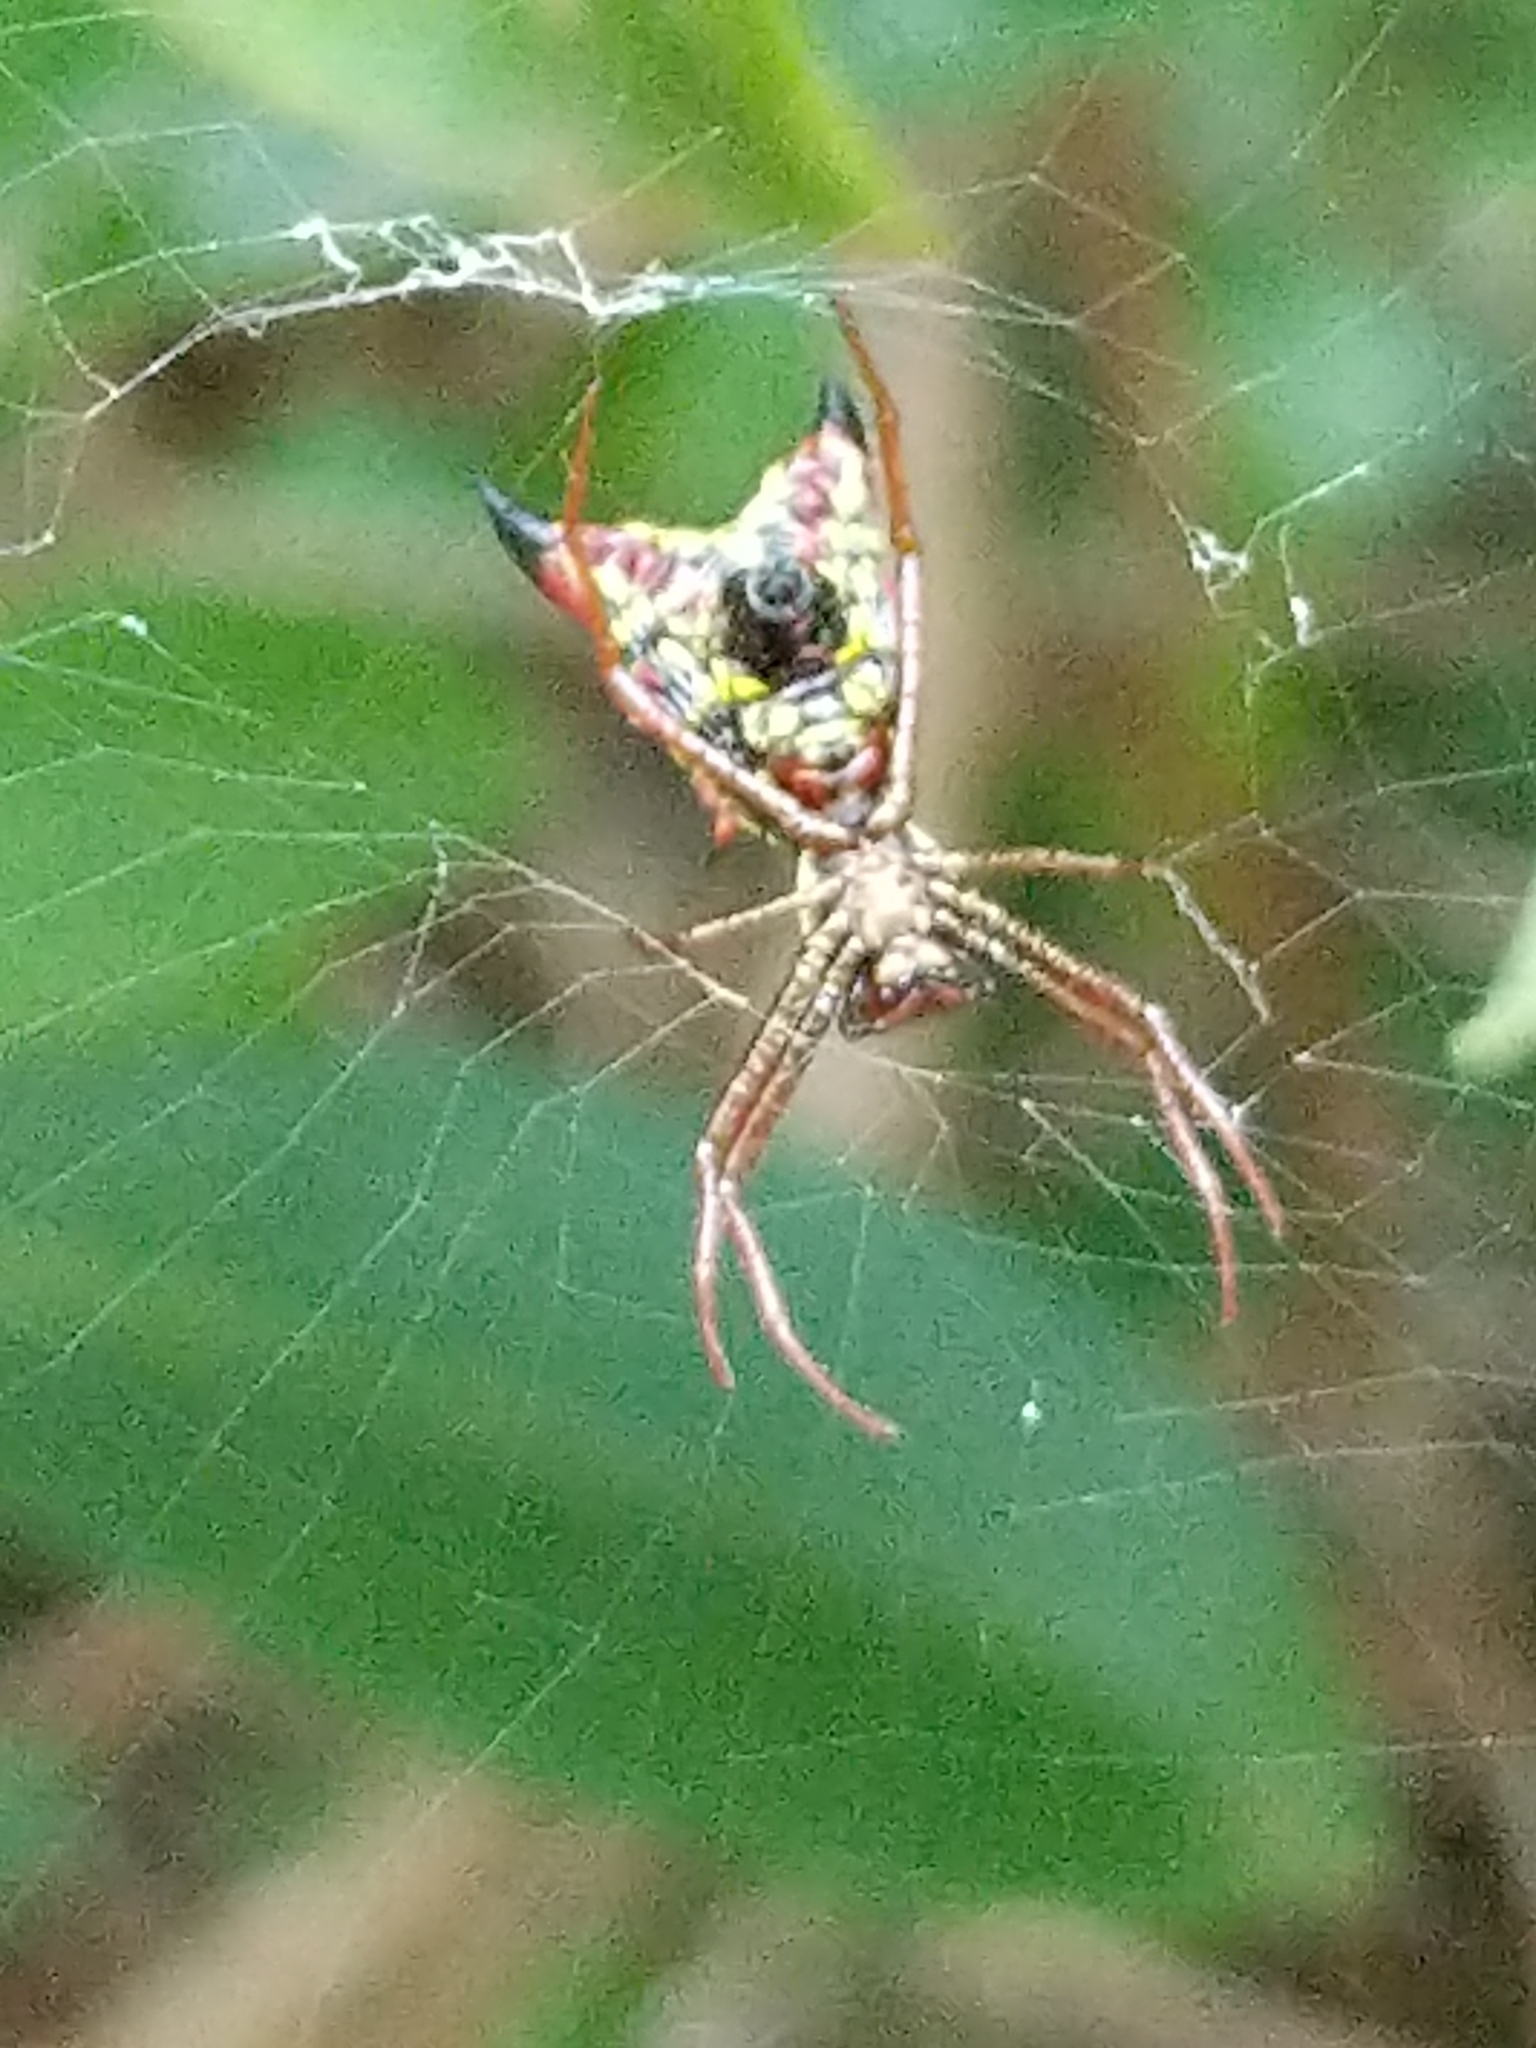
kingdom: Animalia
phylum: Arthropoda
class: Arachnida
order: Araneae
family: Araneidae
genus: Micrathena
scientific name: Micrathena sagittata
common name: Orb weavers
